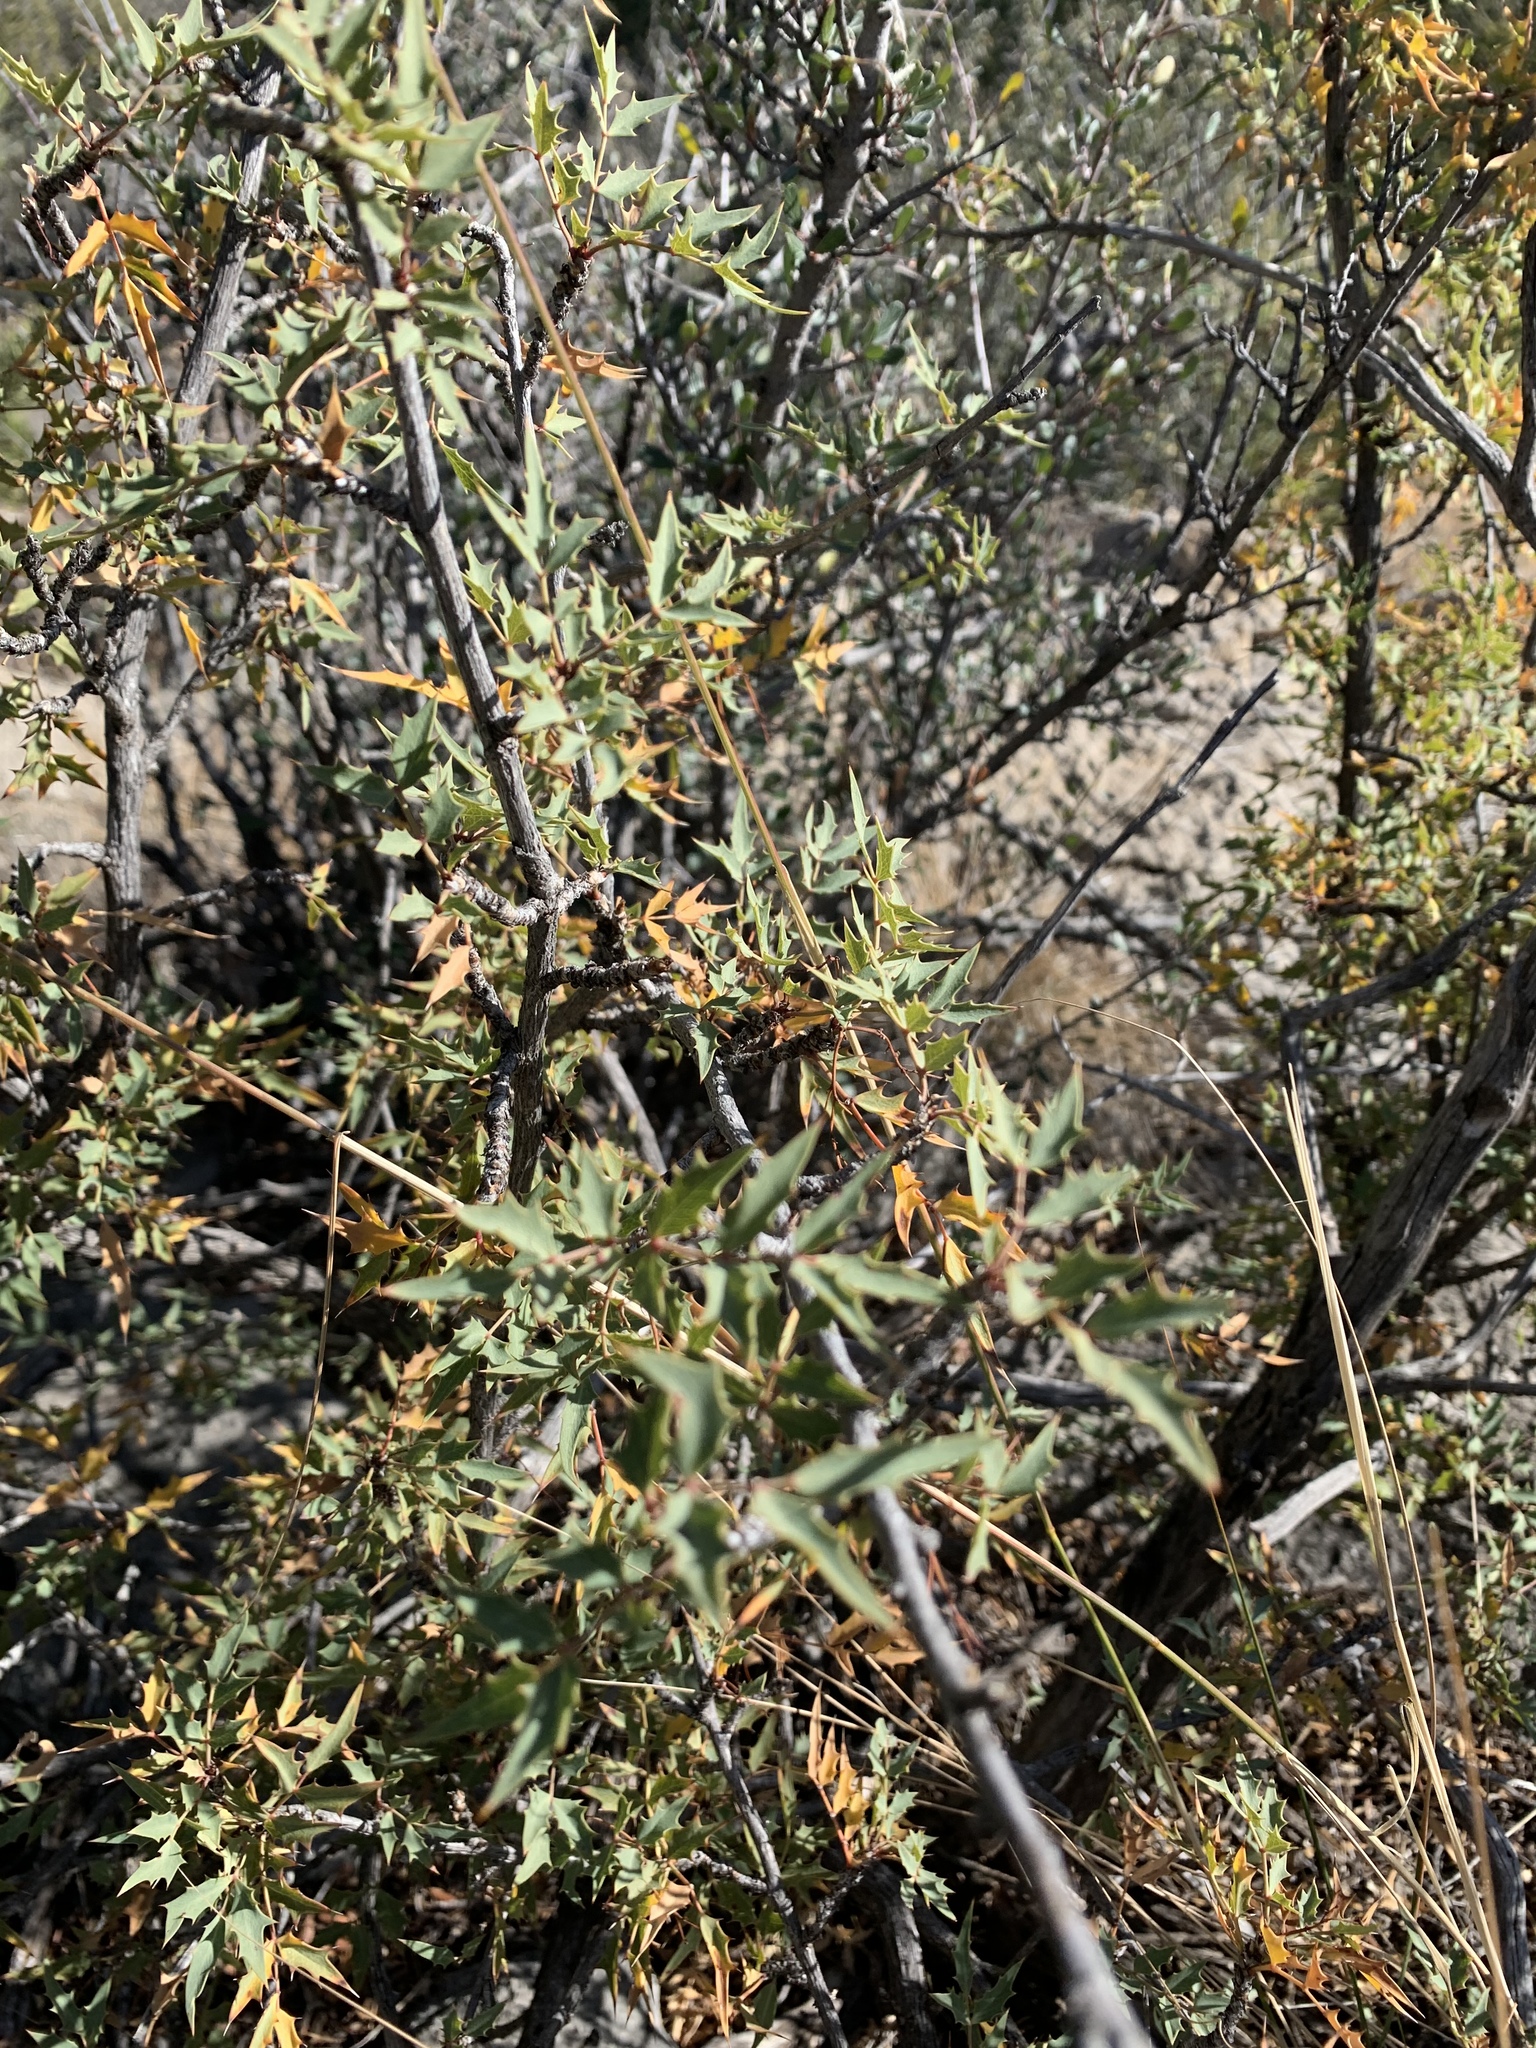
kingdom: Plantae
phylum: Tracheophyta
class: Magnoliopsida
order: Ranunculales
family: Berberidaceae
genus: Alloberberis
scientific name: Alloberberis haematocarpa
